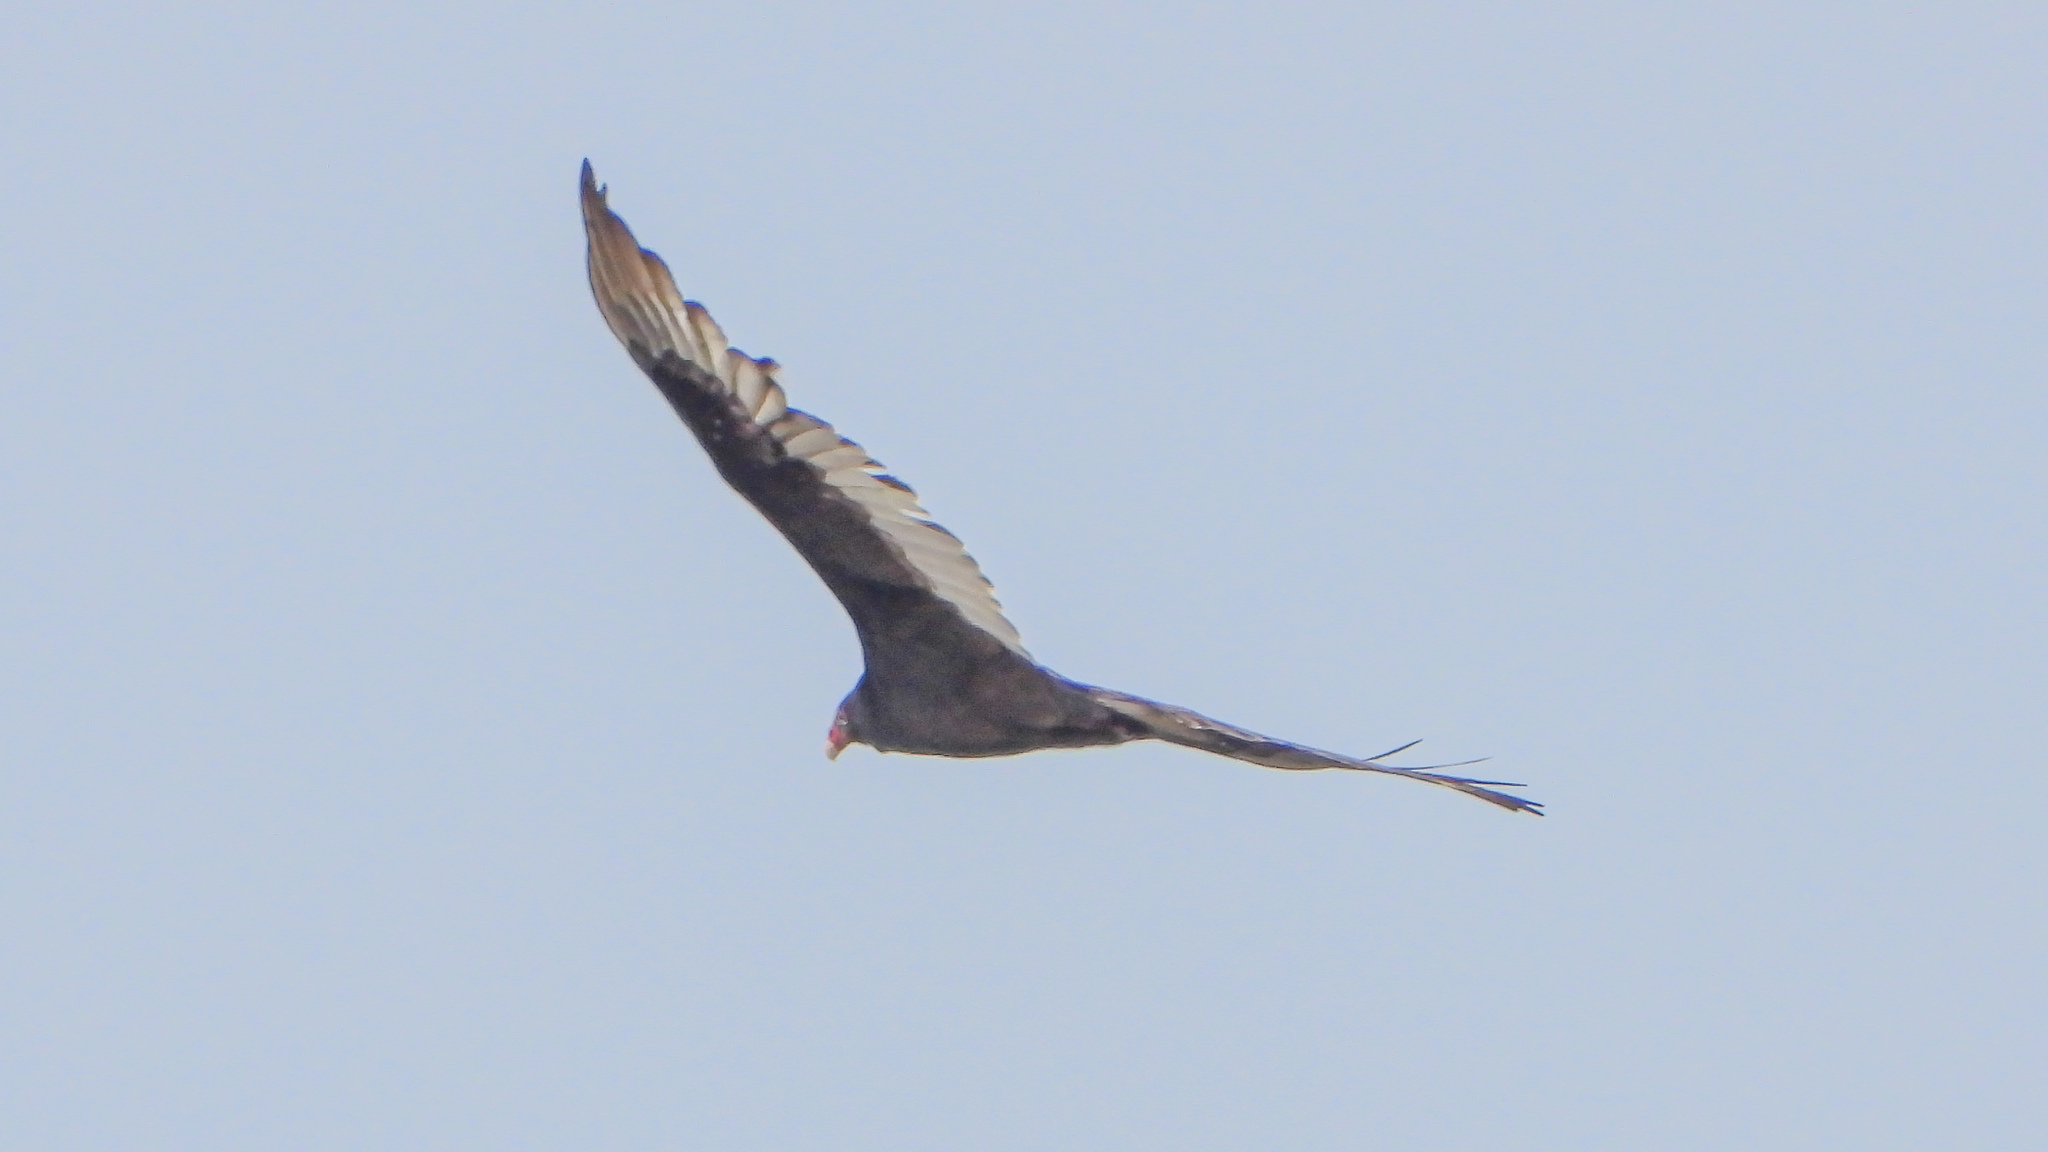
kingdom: Animalia
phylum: Chordata
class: Aves
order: Accipitriformes
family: Cathartidae
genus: Cathartes
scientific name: Cathartes aura
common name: Turkey vulture
